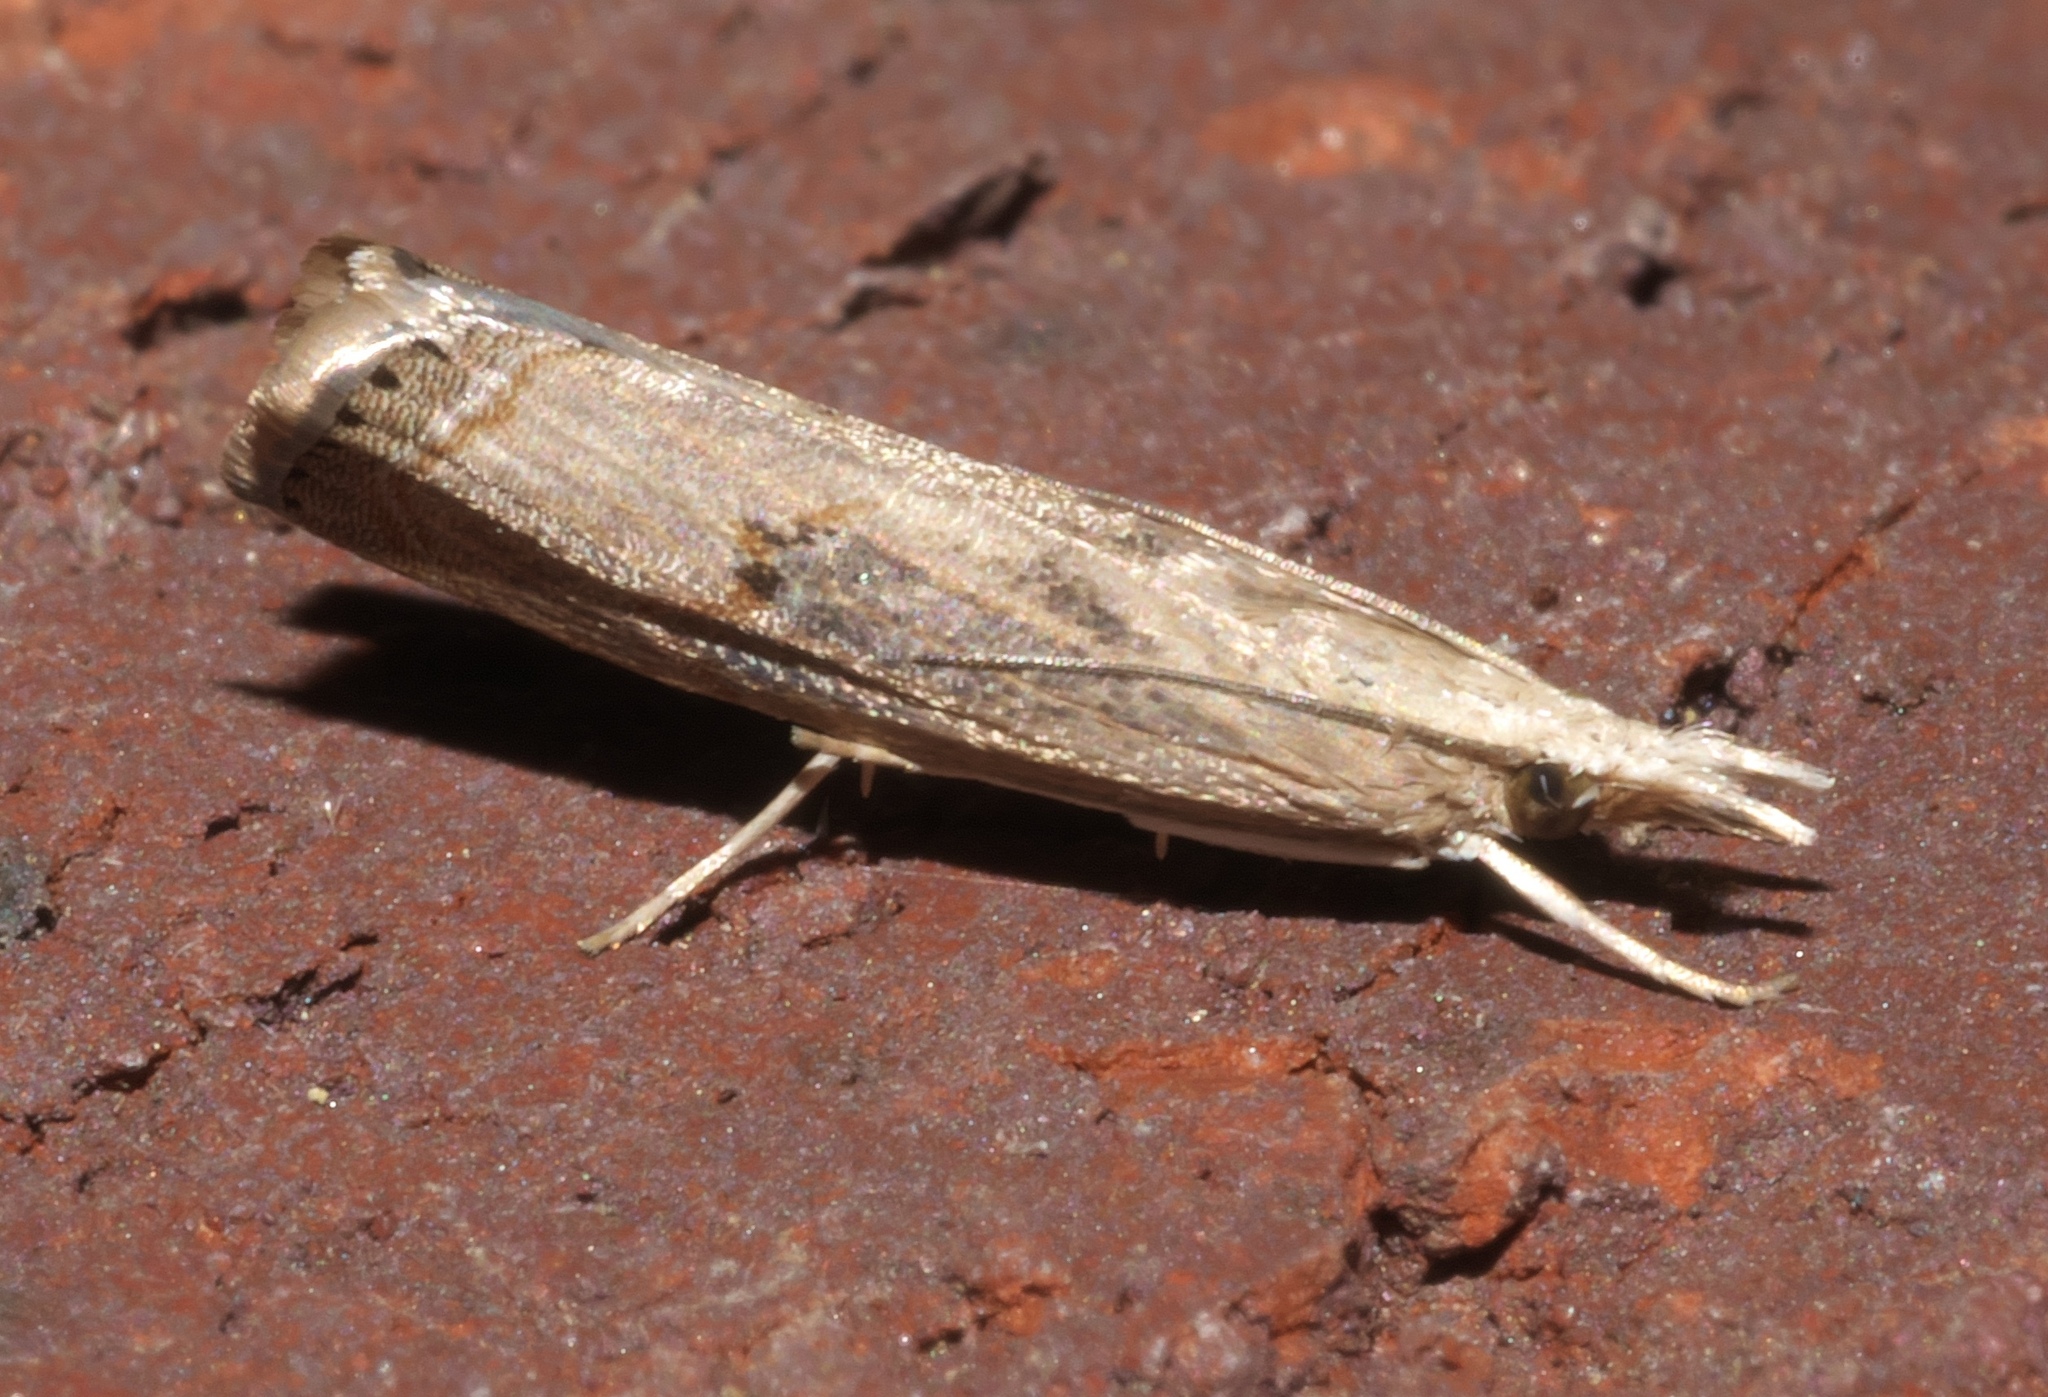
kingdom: Animalia
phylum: Arthropoda
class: Insecta
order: Lepidoptera
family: Crambidae
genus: Parapediasia
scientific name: Parapediasia teterellus
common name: Bluegrass webworm moth
